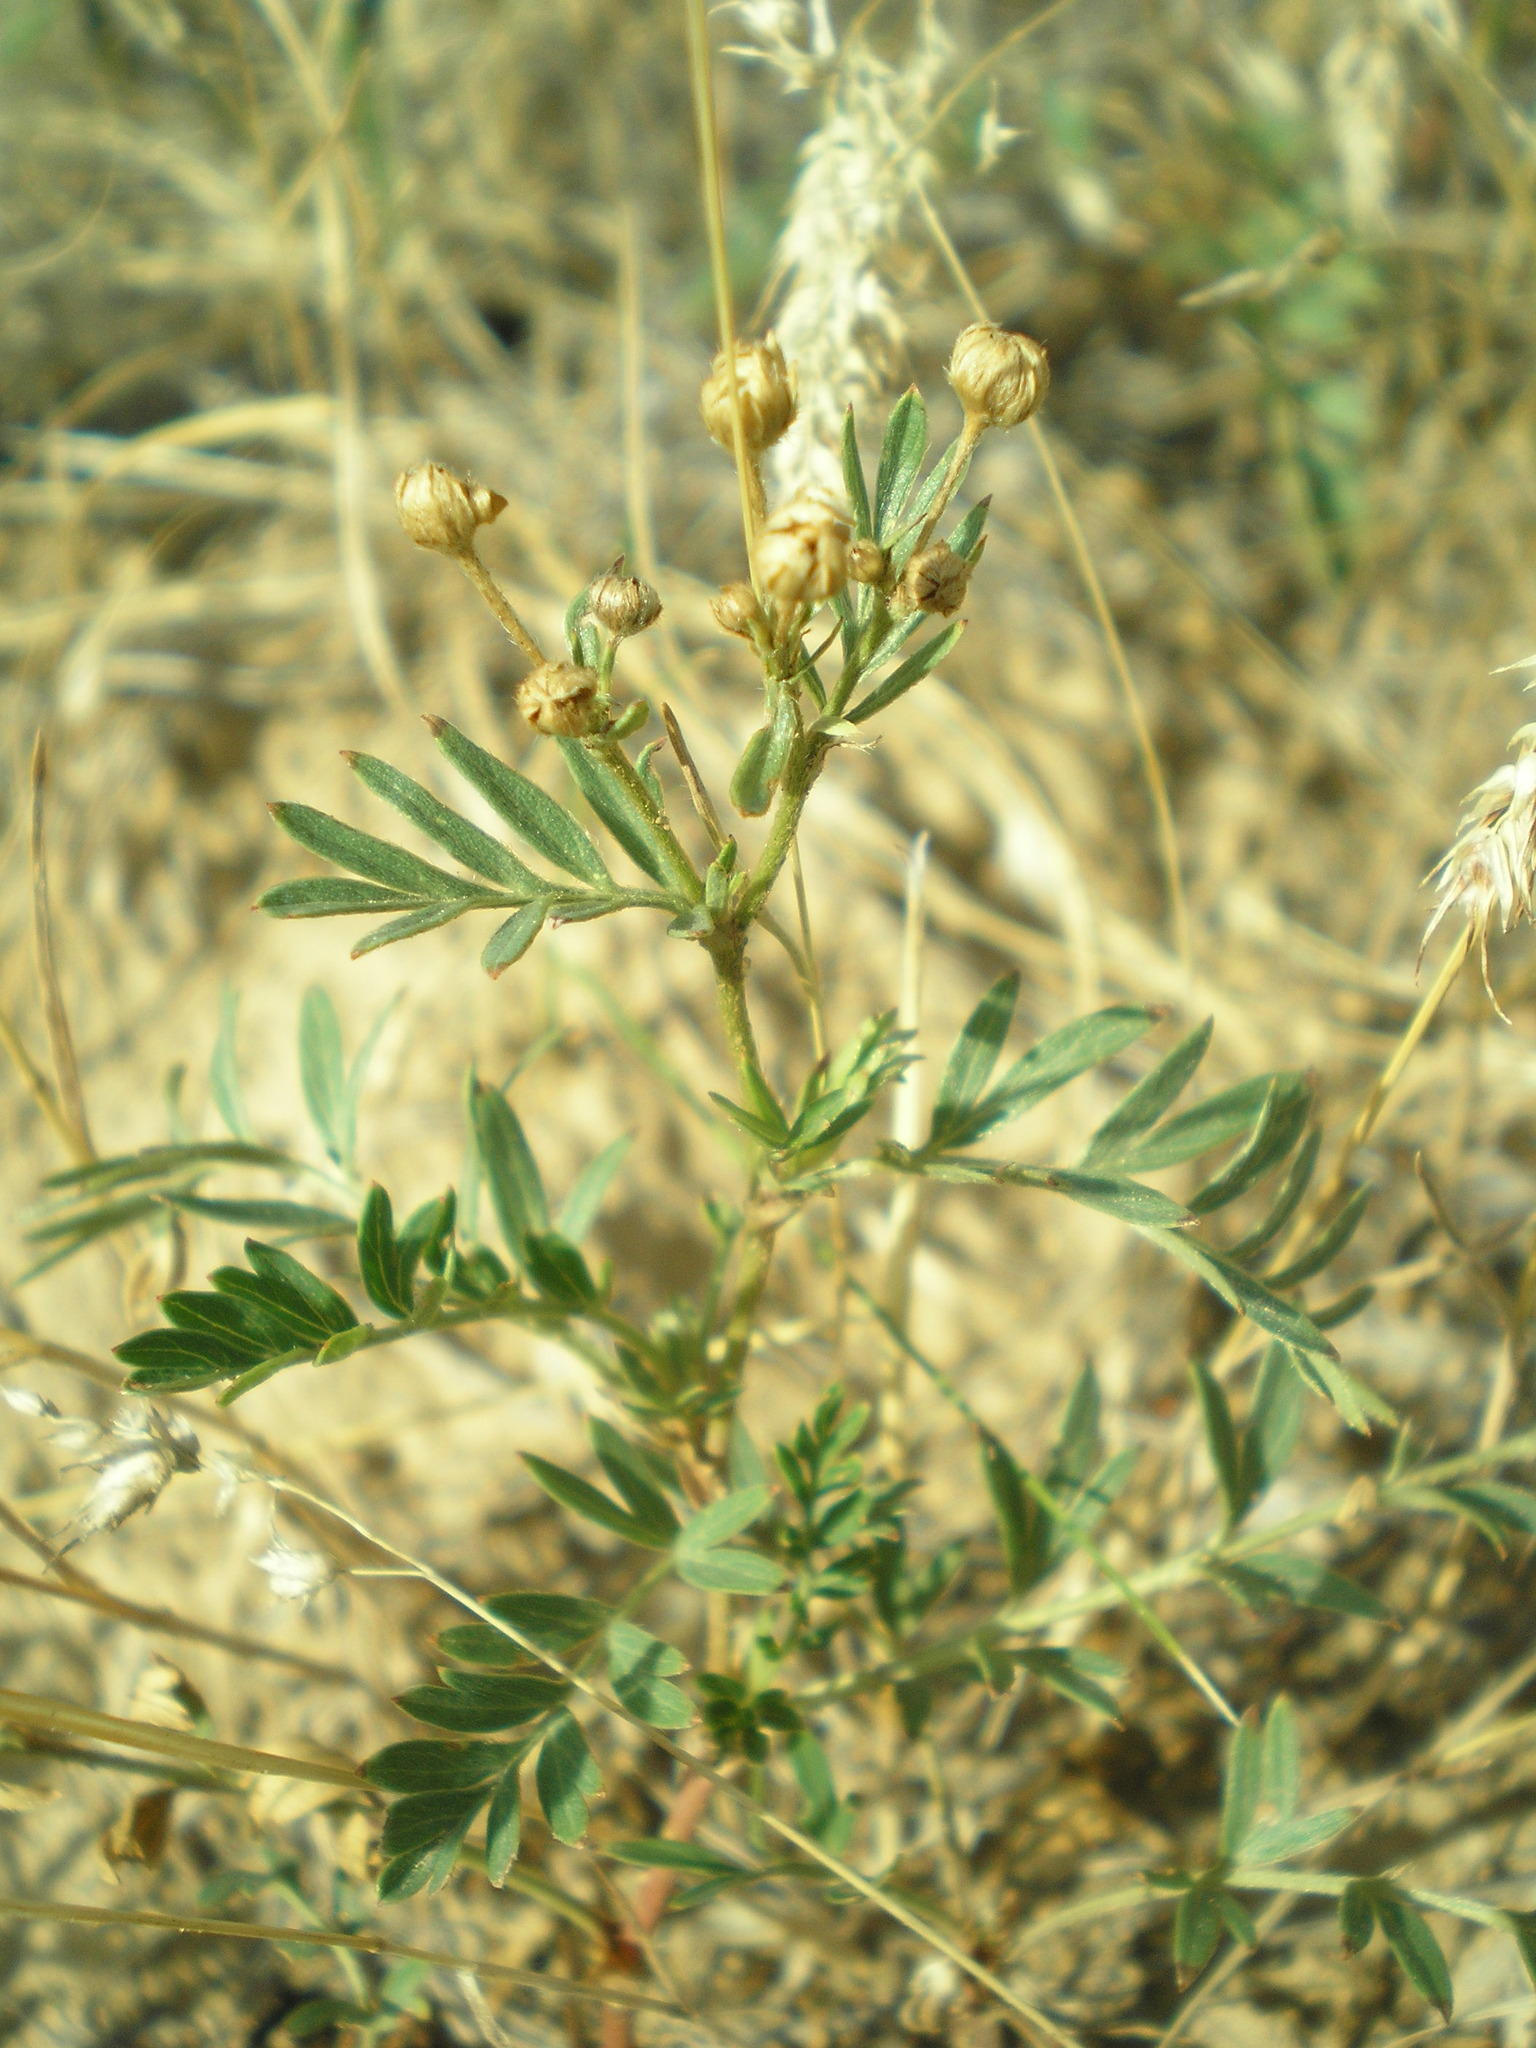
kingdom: Plantae
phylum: Tracheophyta
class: Magnoliopsida
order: Rosales
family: Rosaceae
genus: Sibbaldianthe
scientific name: Sibbaldianthe bifurca
